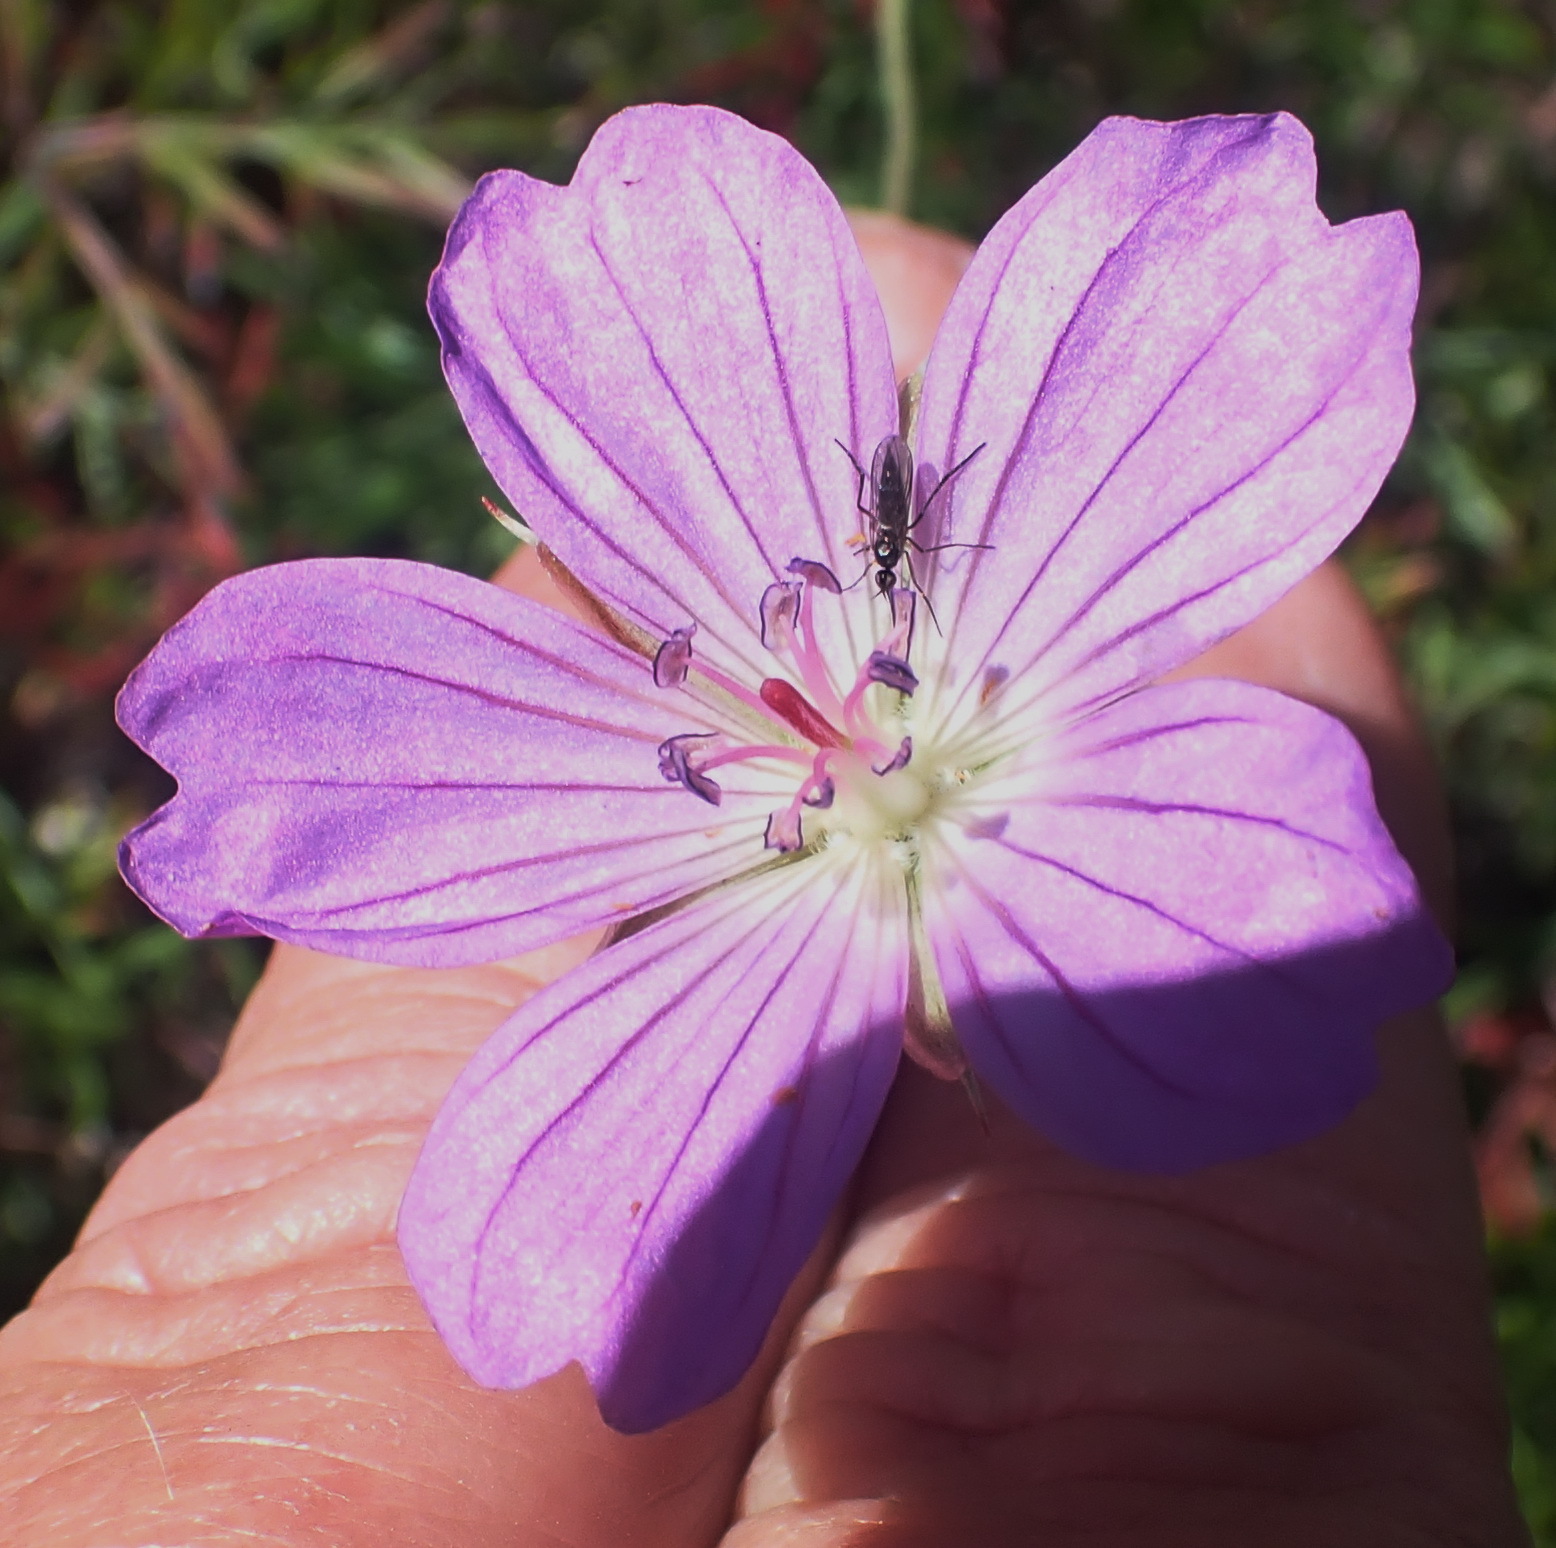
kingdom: Plantae
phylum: Tracheophyta
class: Magnoliopsida
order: Geraniales
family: Geraniaceae
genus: Geranium
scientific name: Geranium incanum
